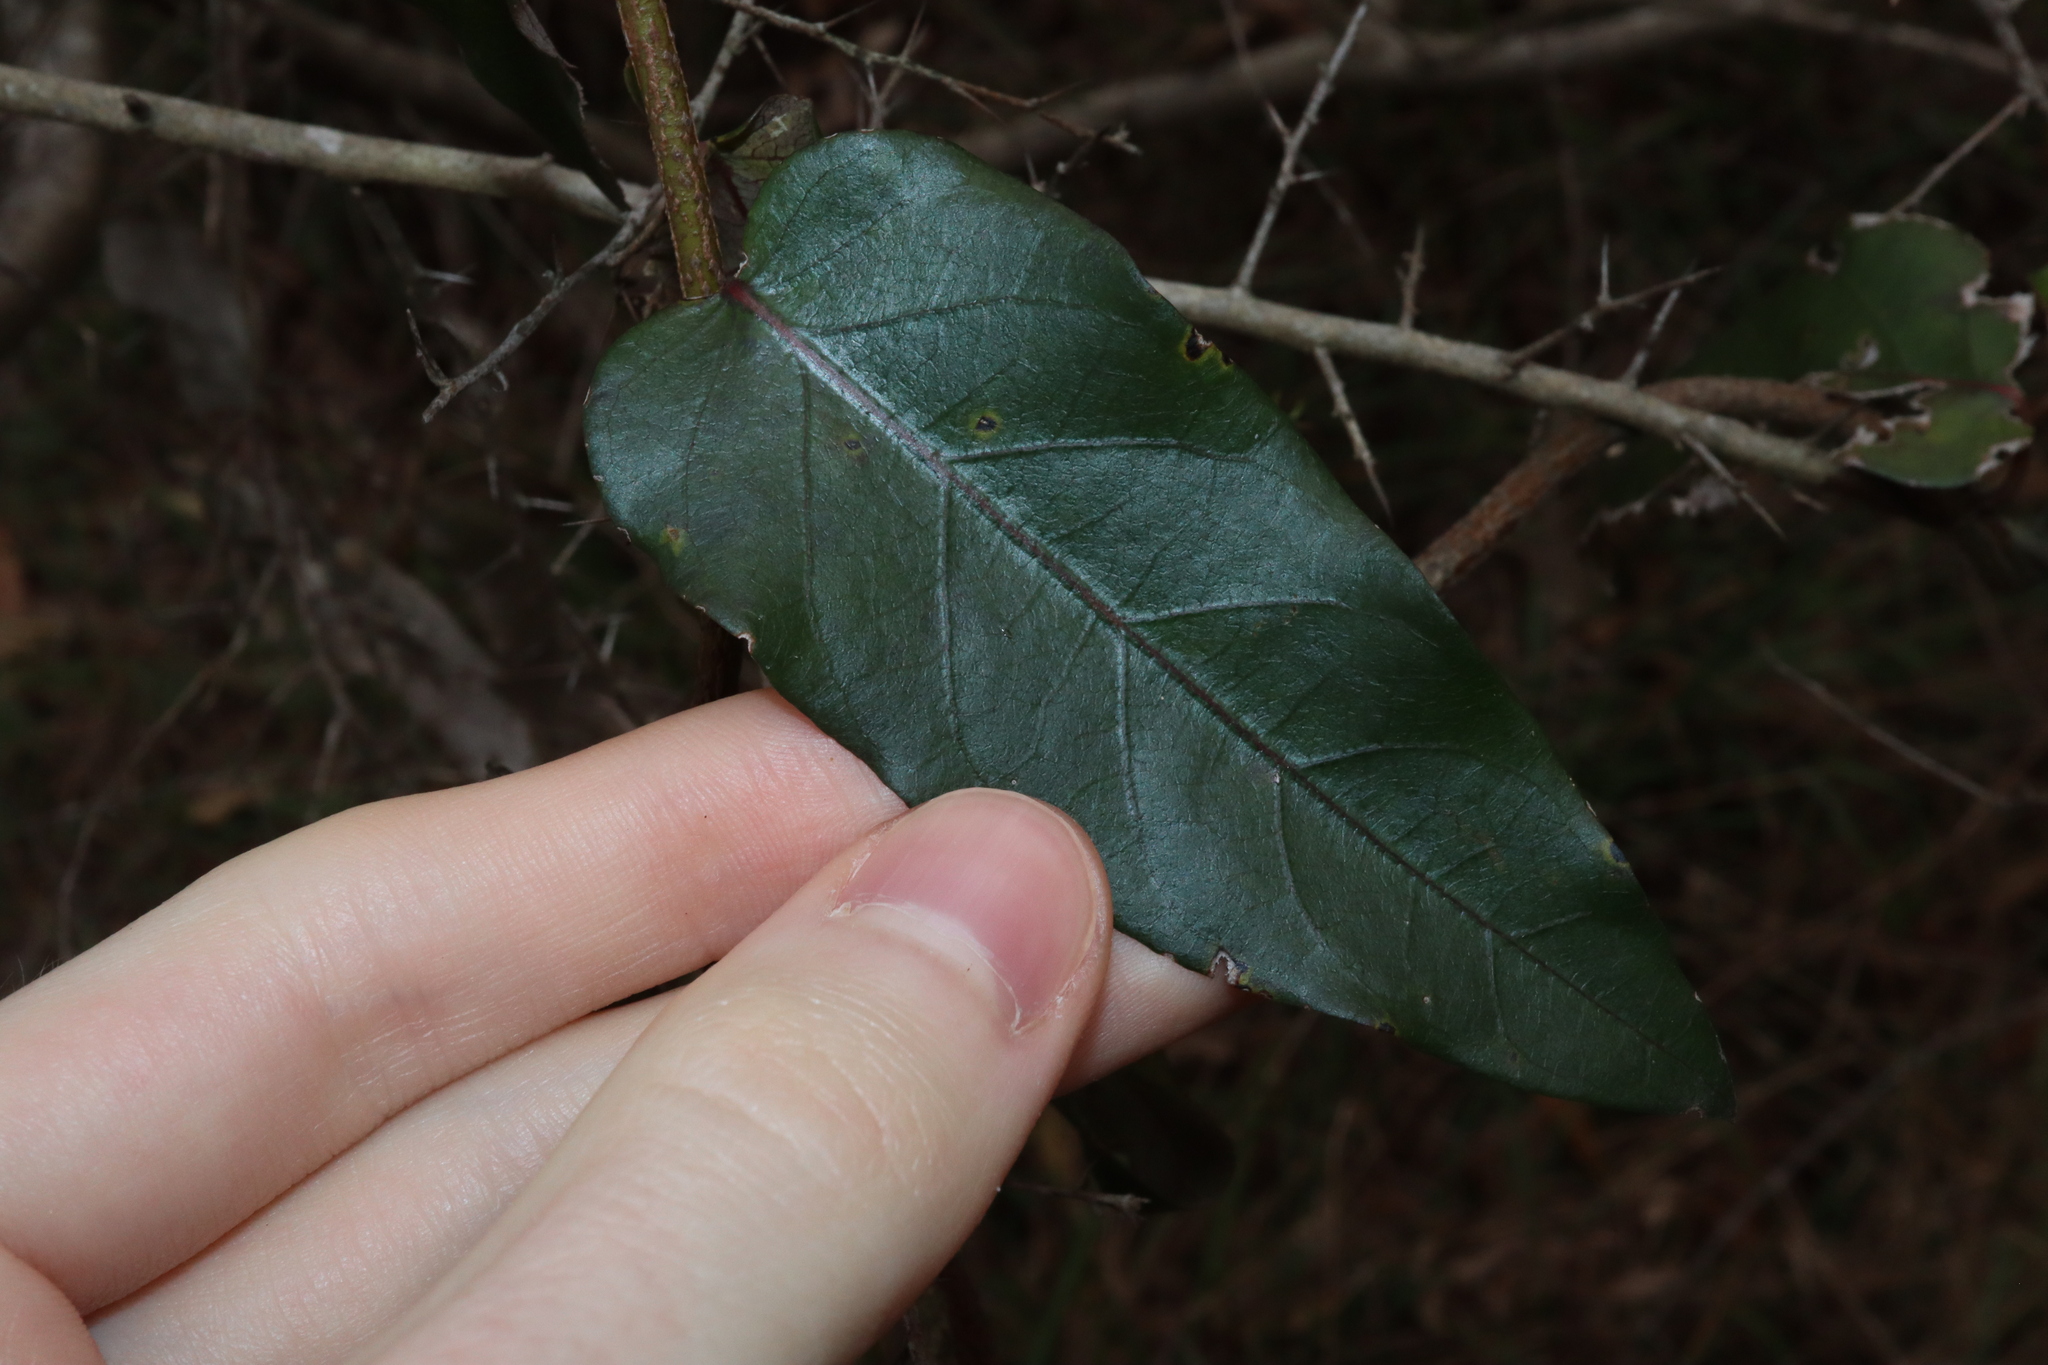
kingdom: Plantae
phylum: Tracheophyta
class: Magnoliopsida
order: Gentianales
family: Apocynaceae
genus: Parsonsia
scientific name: Parsonsia straminea
